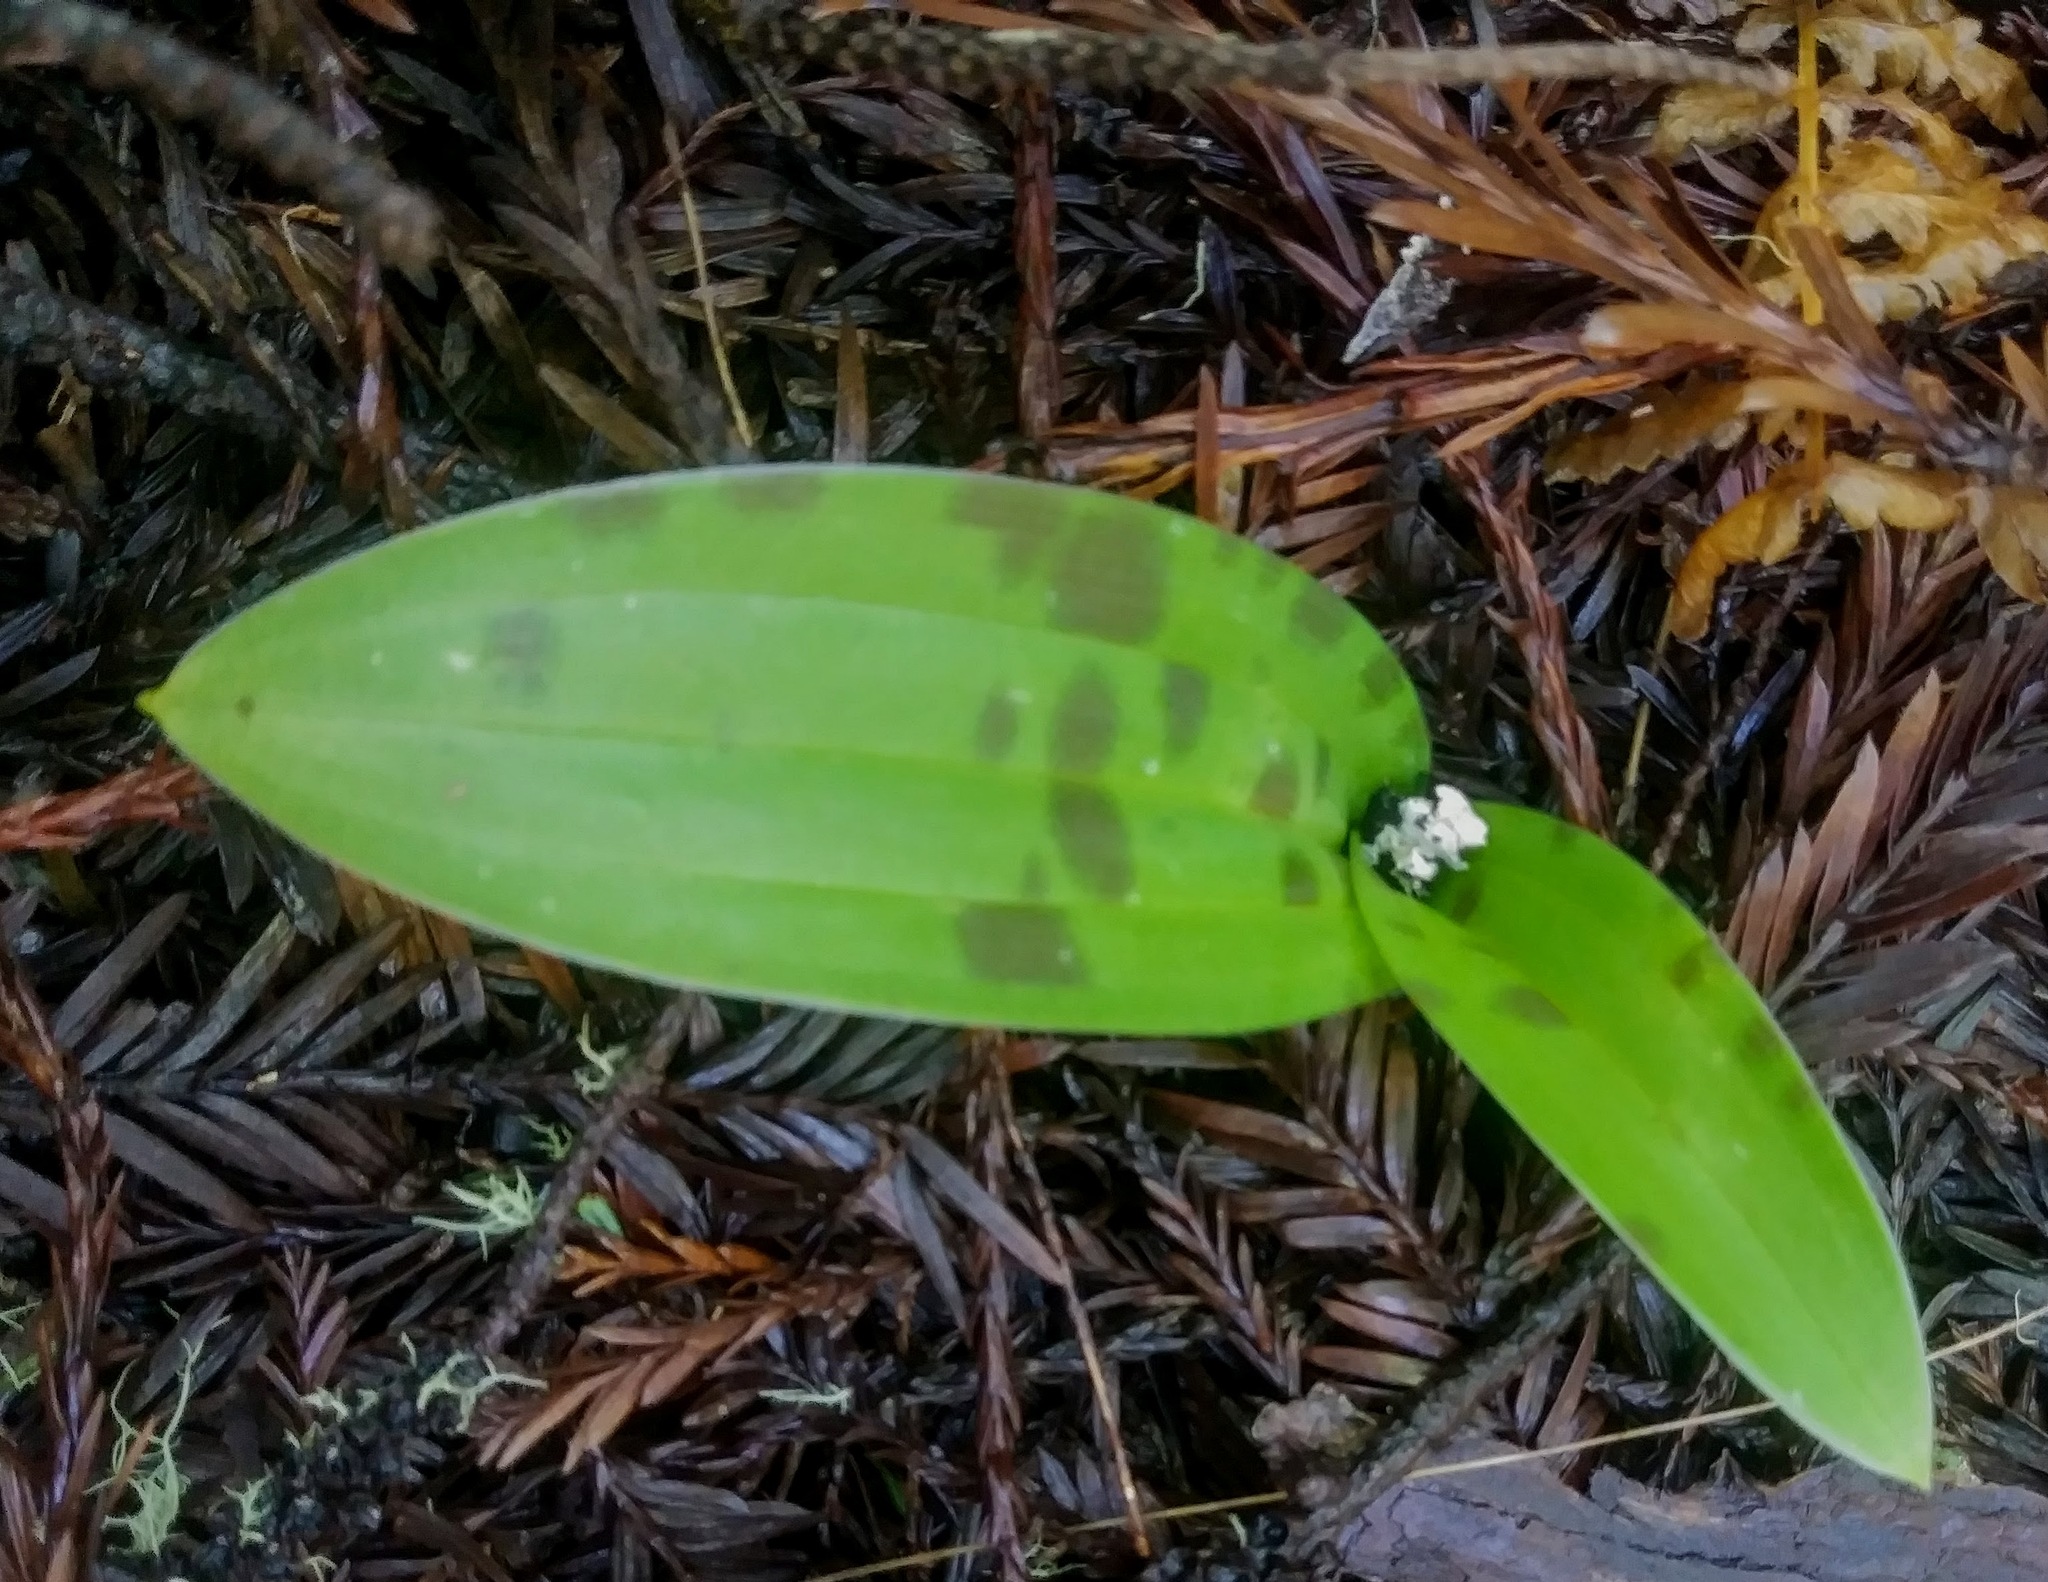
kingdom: Plantae
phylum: Tracheophyta
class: Liliopsida
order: Liliales
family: Liliaceae
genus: Scoliopus
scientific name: Scoliopus bigelovii
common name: Foetid adder's-tongue
